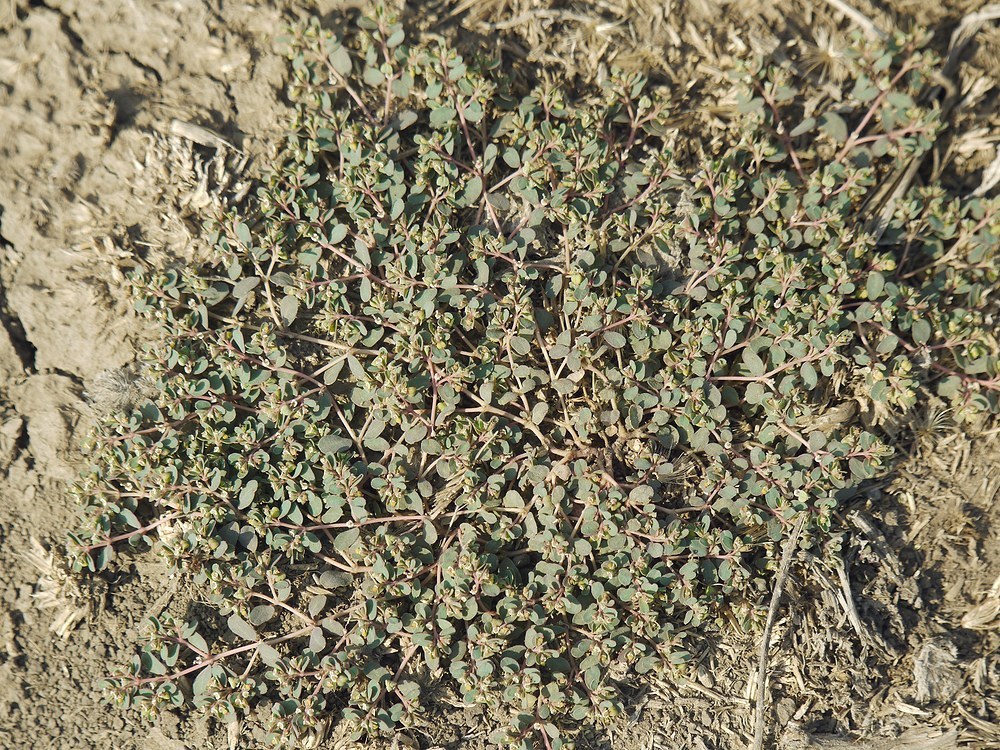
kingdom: Plantae
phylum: Tracheophyta
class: Magnoliopsida
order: Malpighiales
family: Euphorbiaceae
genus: Euphorbia
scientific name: Euphorbia chamaesyce
